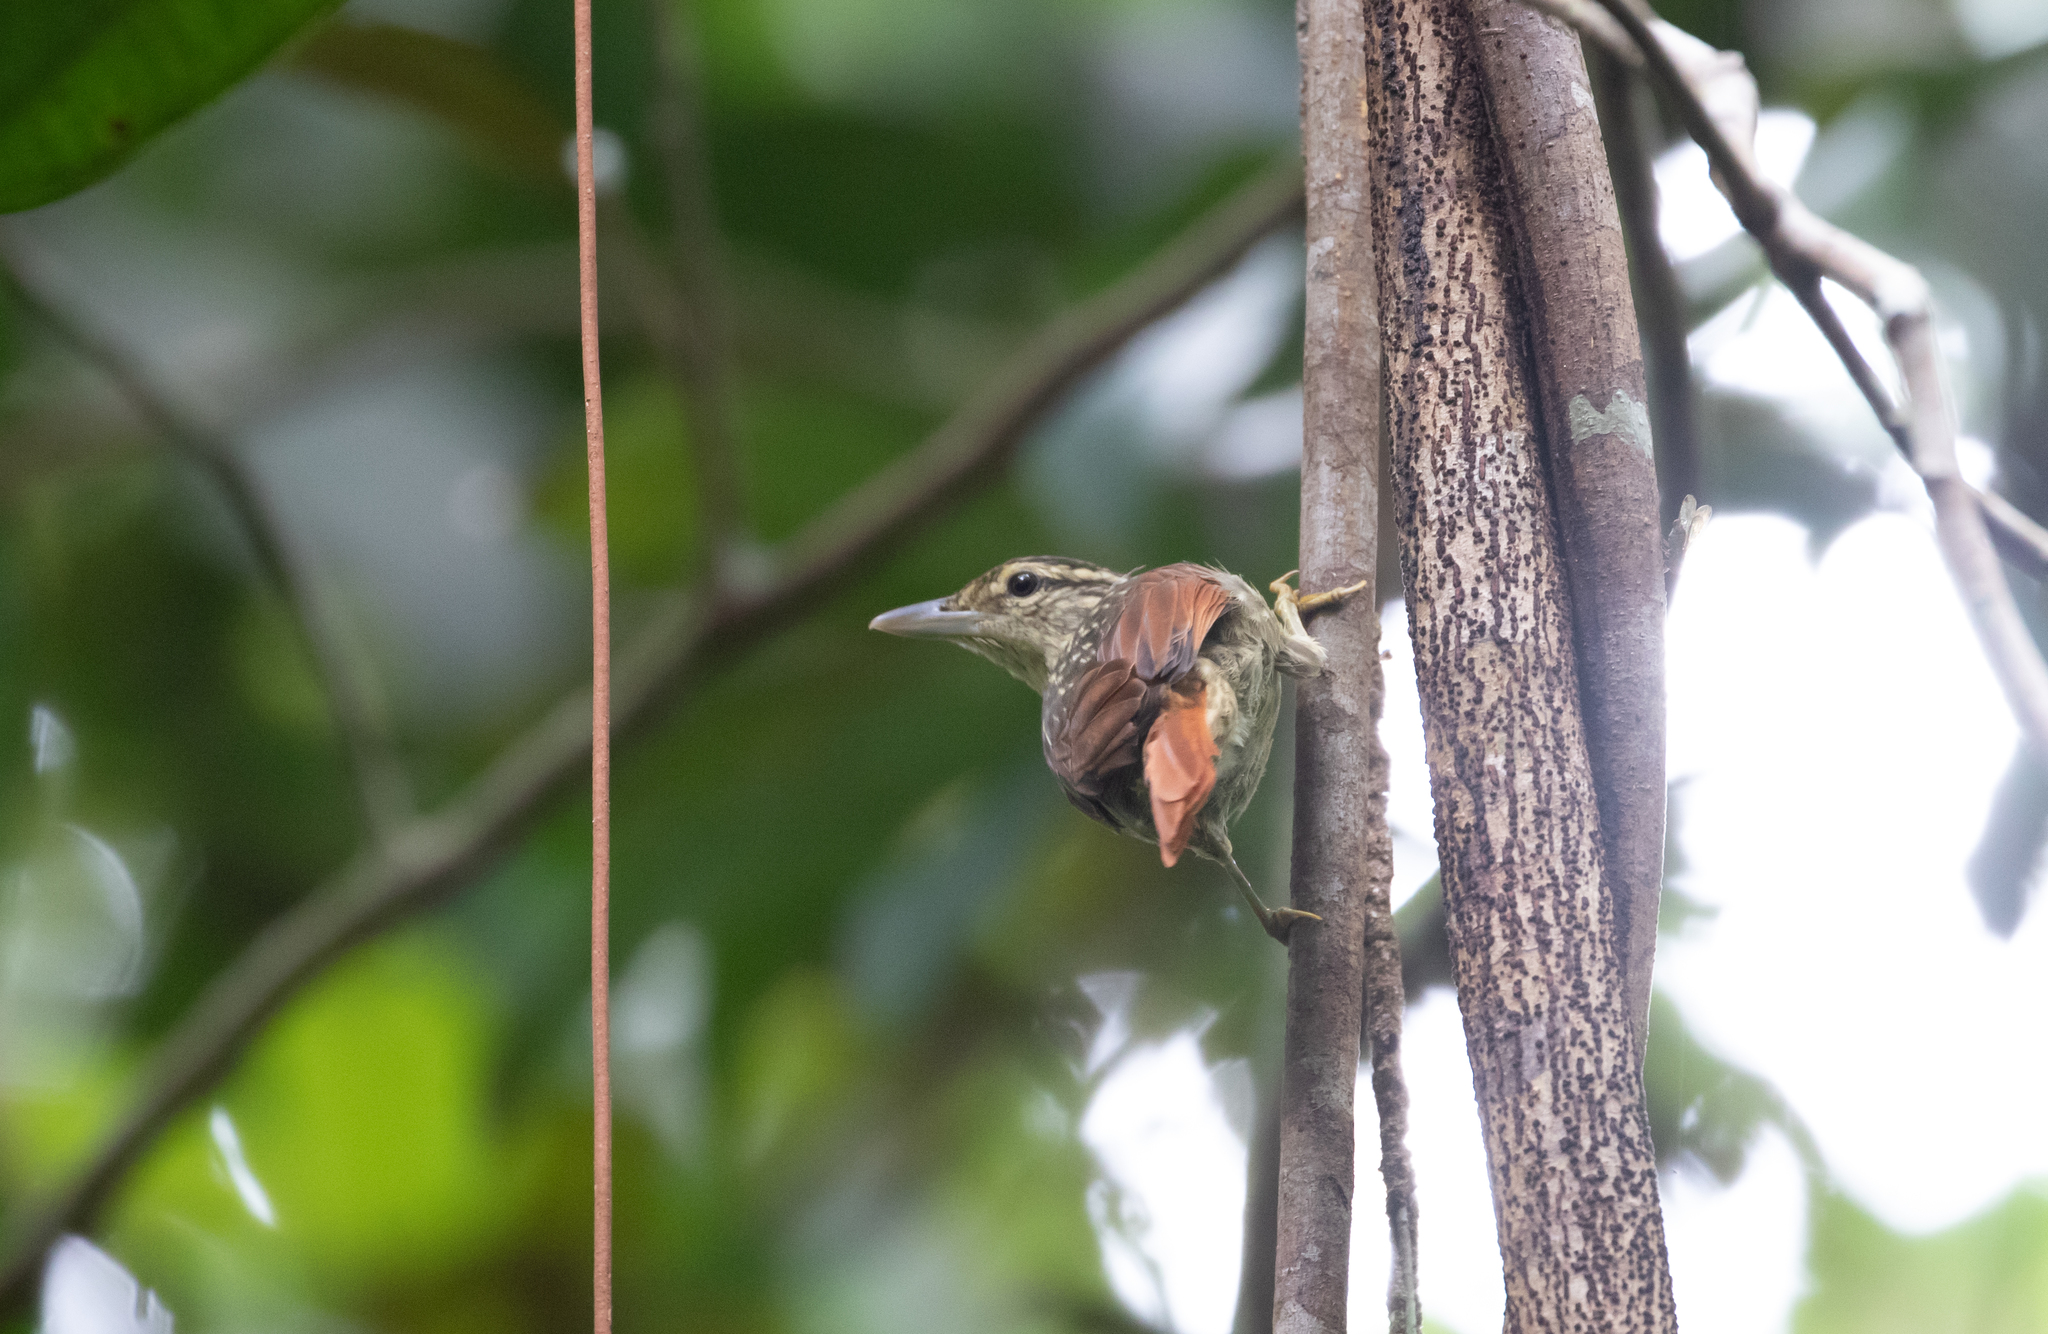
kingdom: Animalia
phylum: Chordata
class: Aves
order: Passeriformes
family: Furnariidae
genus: Ancistrops
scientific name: Ancistrops strigilatus
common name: Chestnut-winged hookbill
